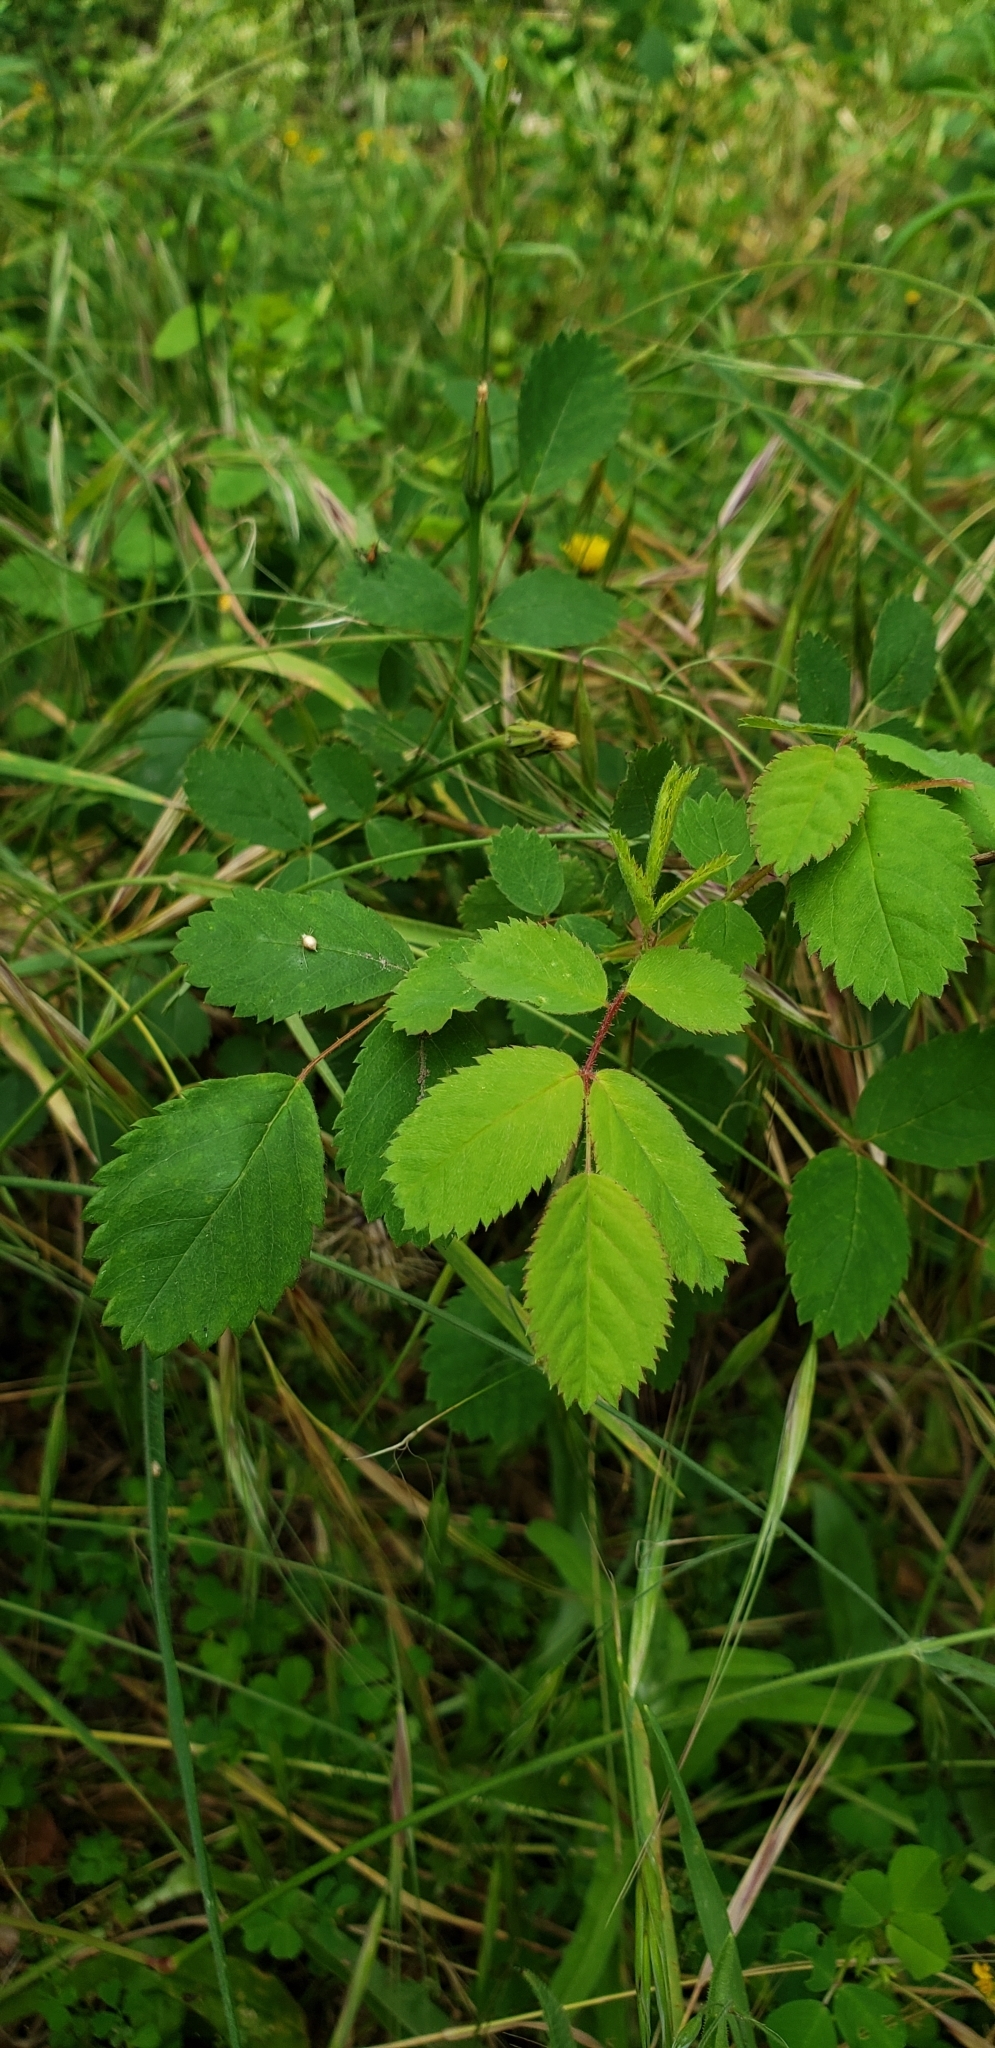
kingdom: Plantae
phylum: Tracheophyta
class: Magnoliopsida
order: Rosales
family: Rosaceae
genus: Rosa
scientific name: Rosa californica
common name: California rose
